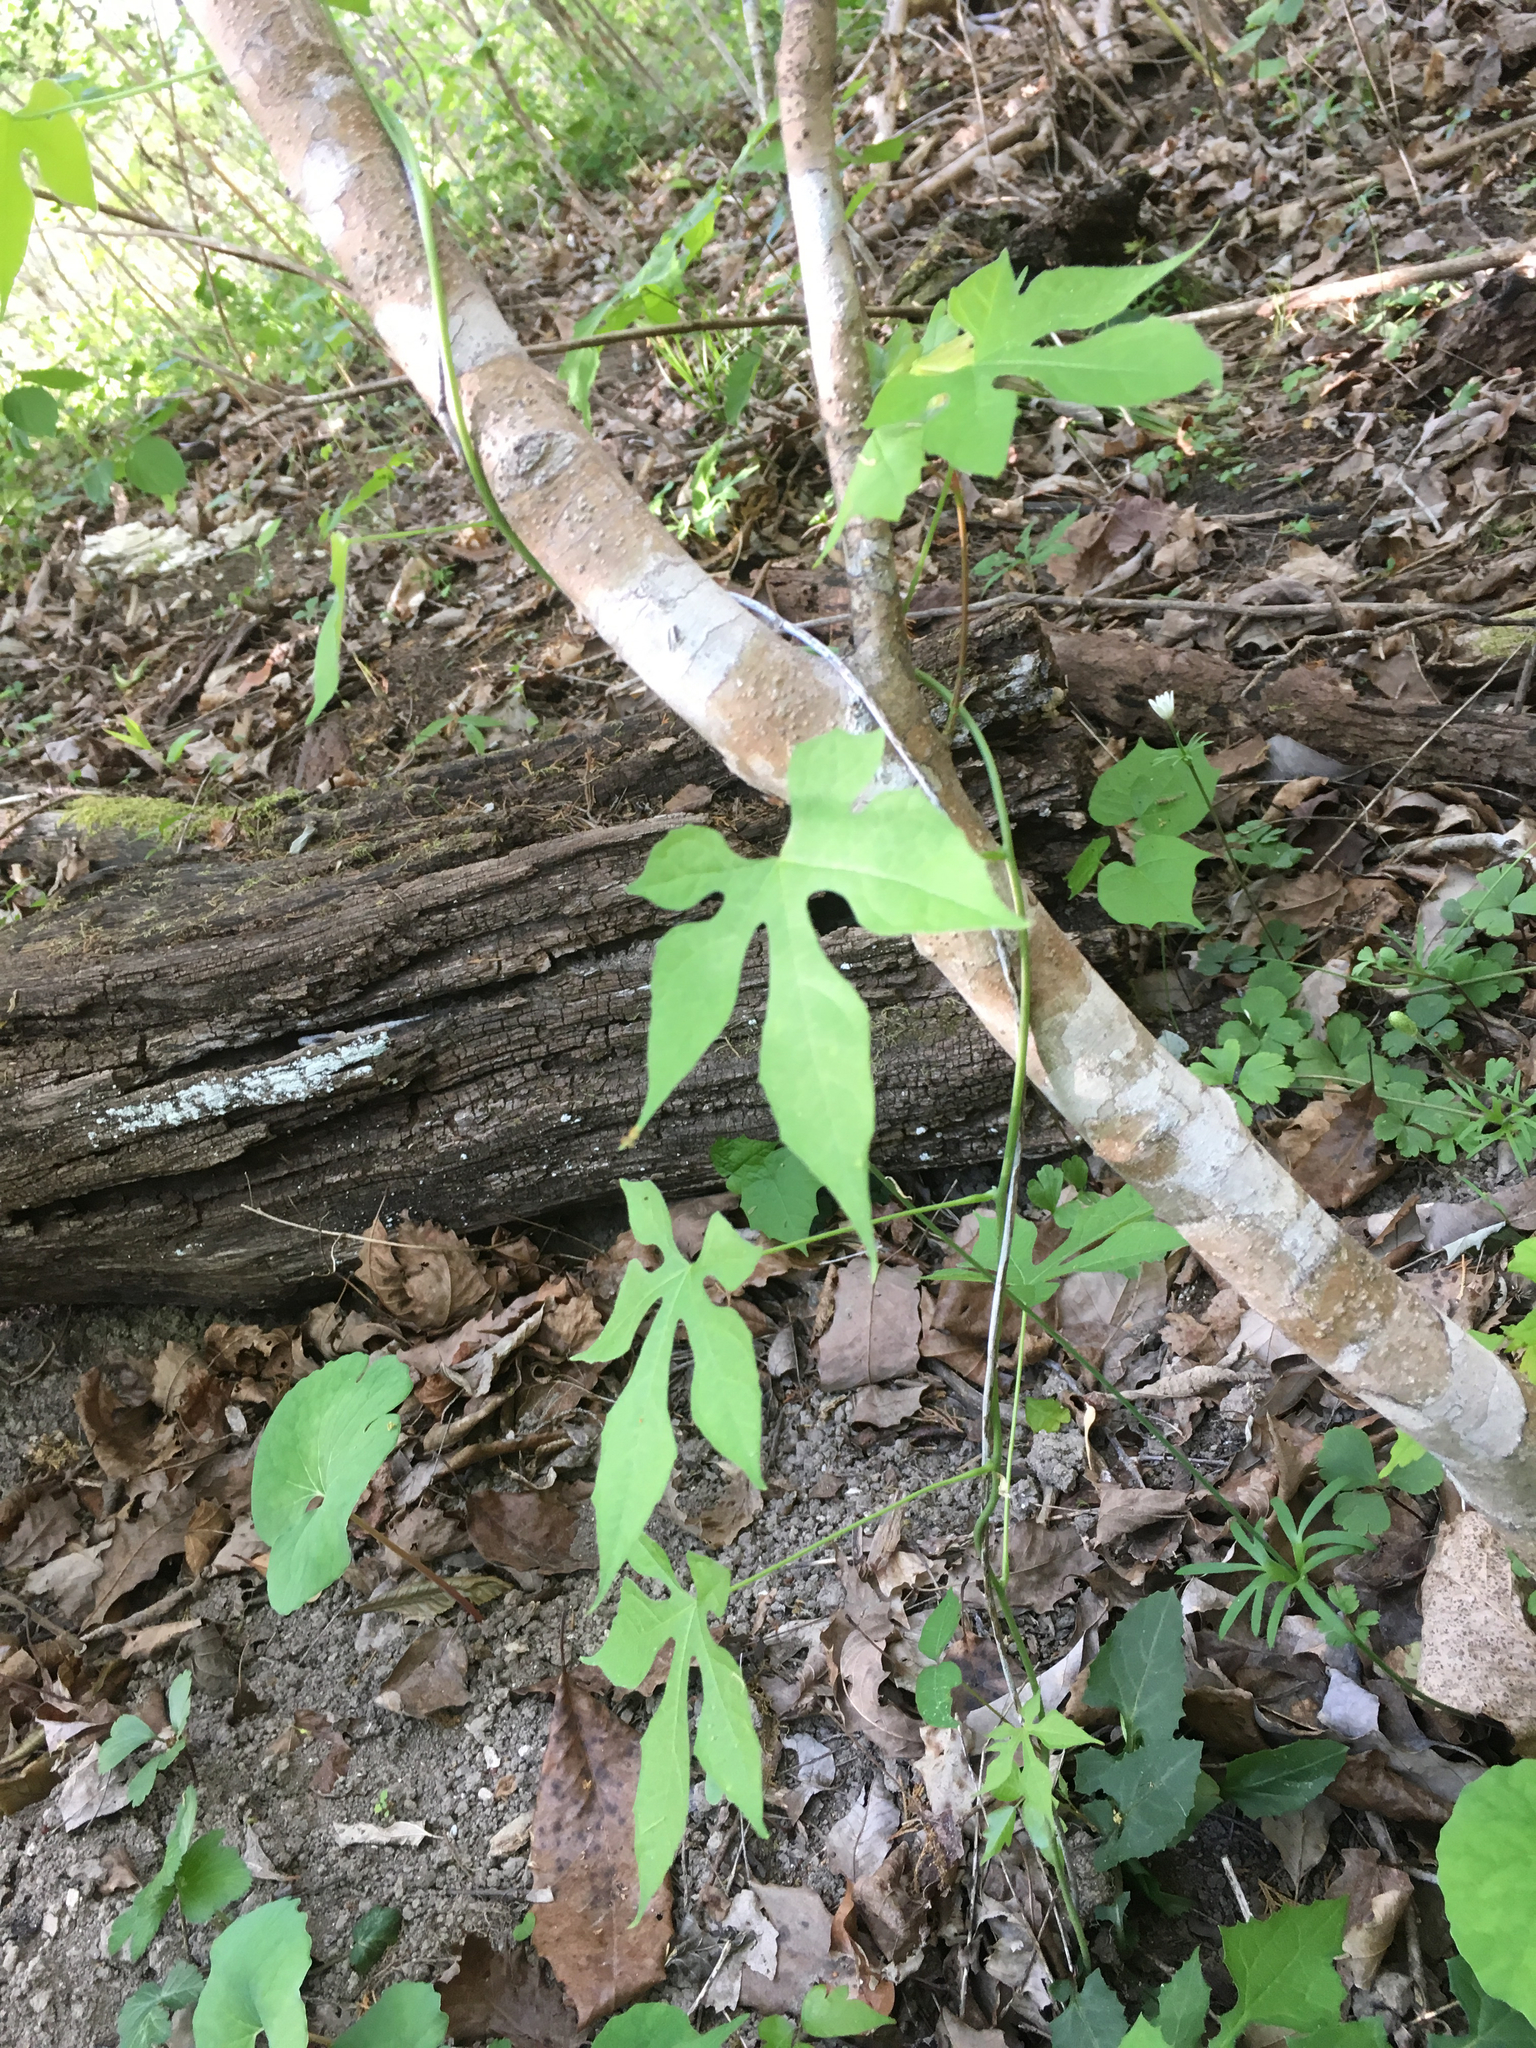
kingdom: Plantae
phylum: Tracheophyta
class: Magnoliopsida
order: Ranunculales
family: Menispermaceae
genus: Calycocarpum
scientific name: Calycocarpum lyonii
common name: Cupseed
